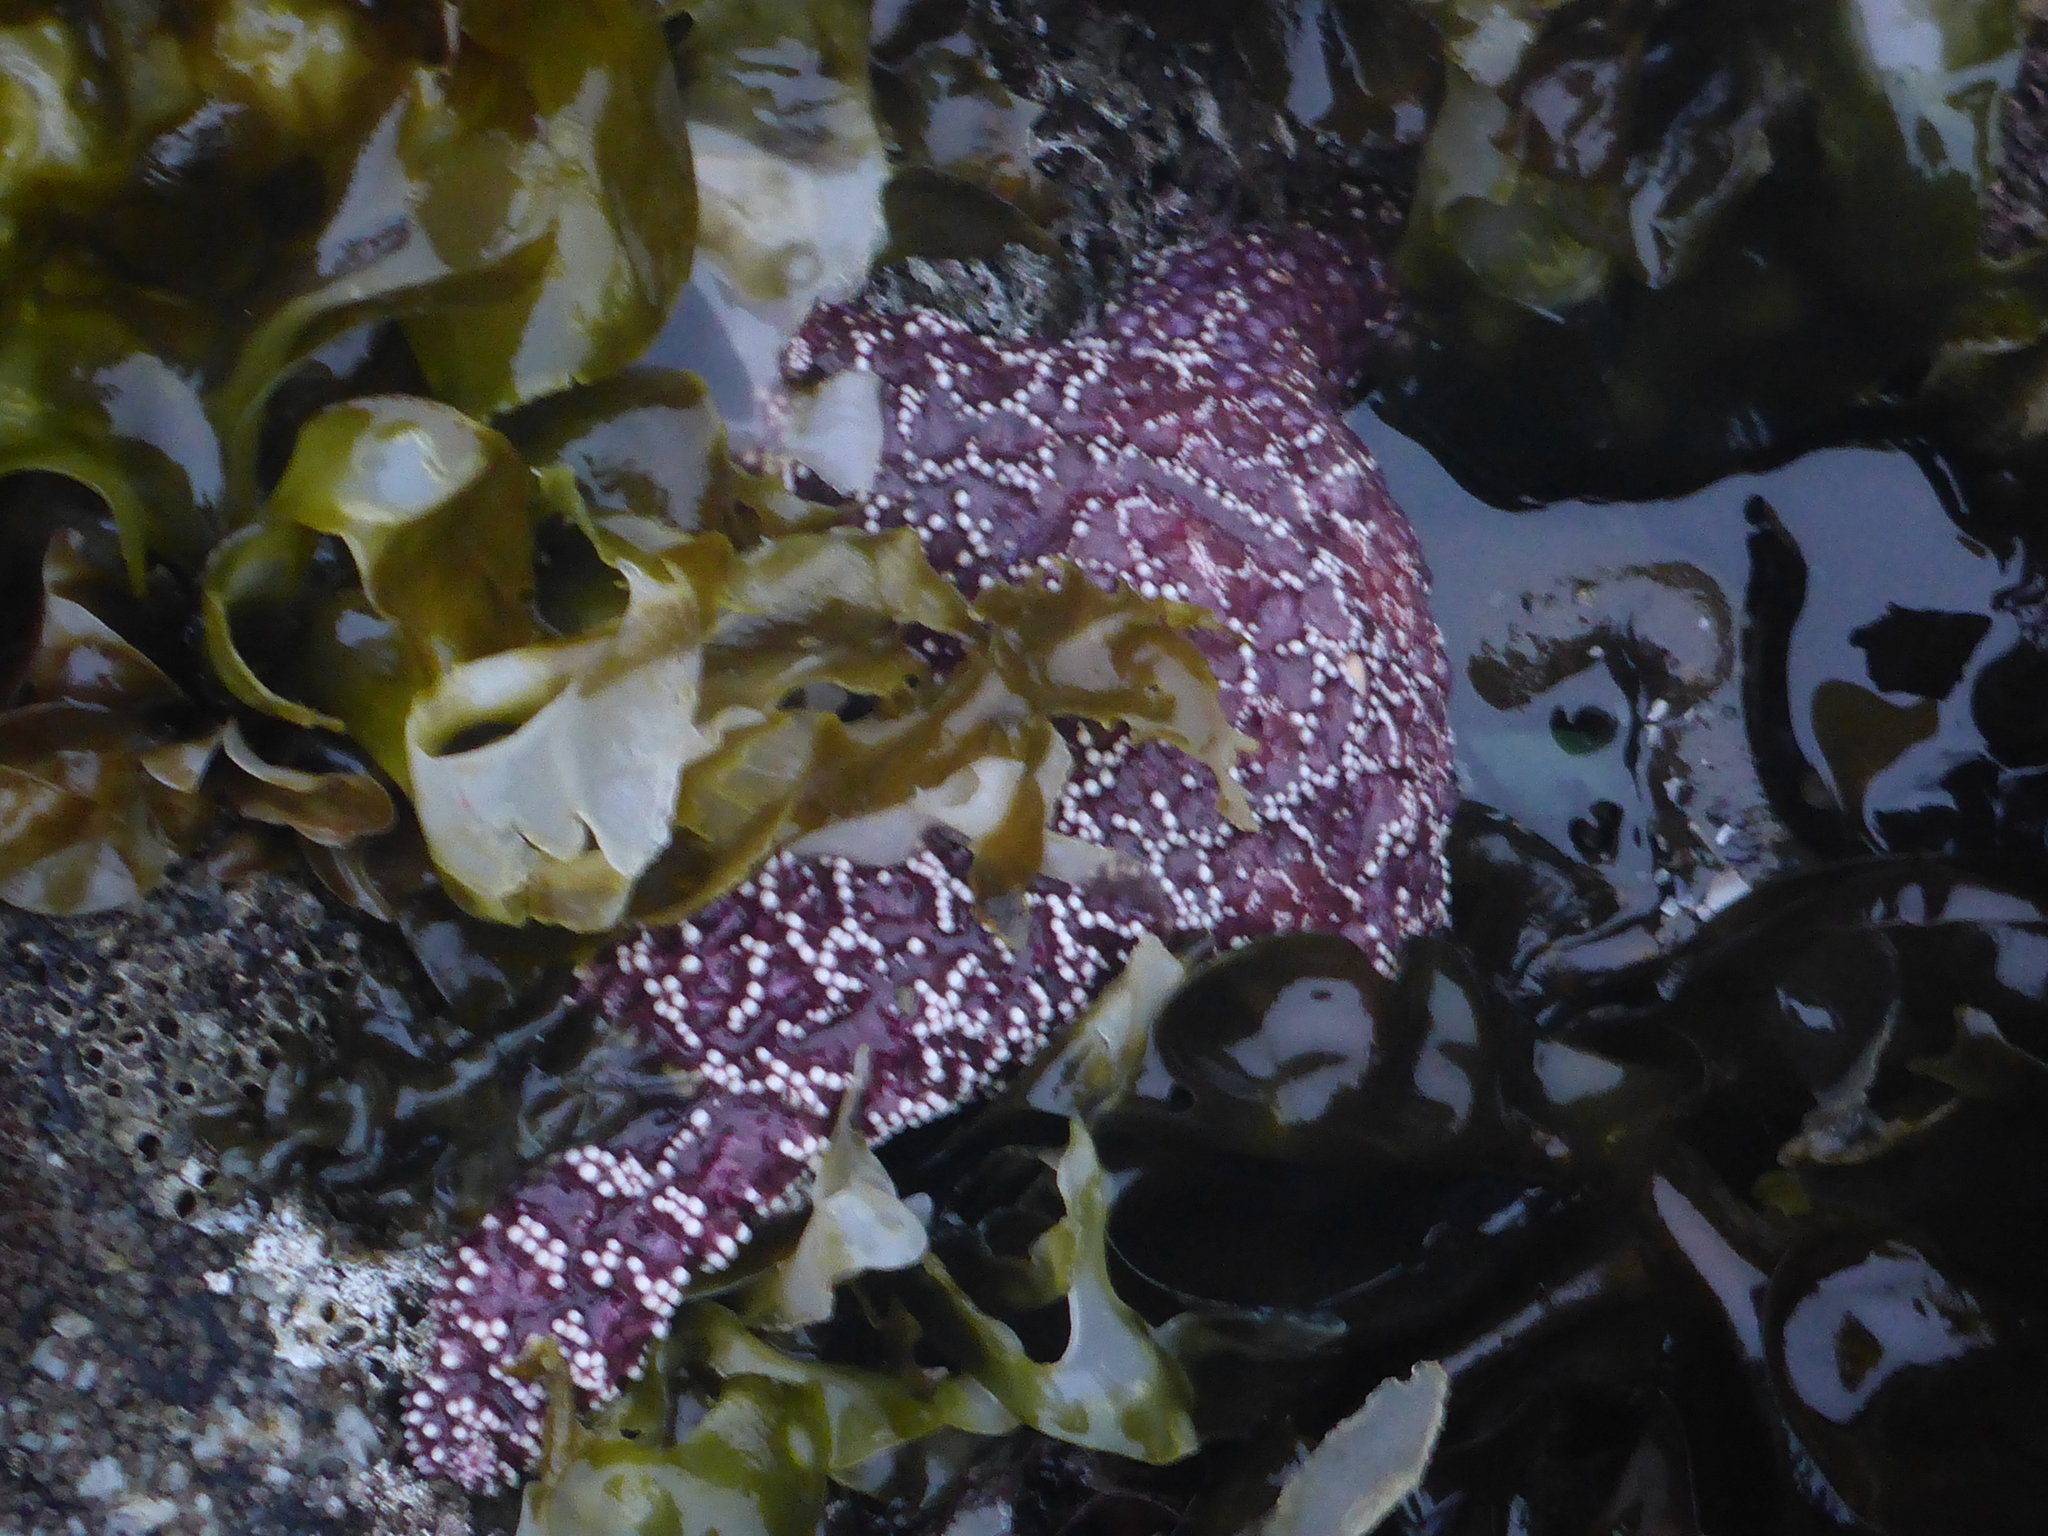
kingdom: Animalia
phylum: Echinodermata
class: Asteroidea
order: Forcipulatida
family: Asteriidae
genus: Pisaster
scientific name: Pisaster ochraceus
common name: Ochre stars
